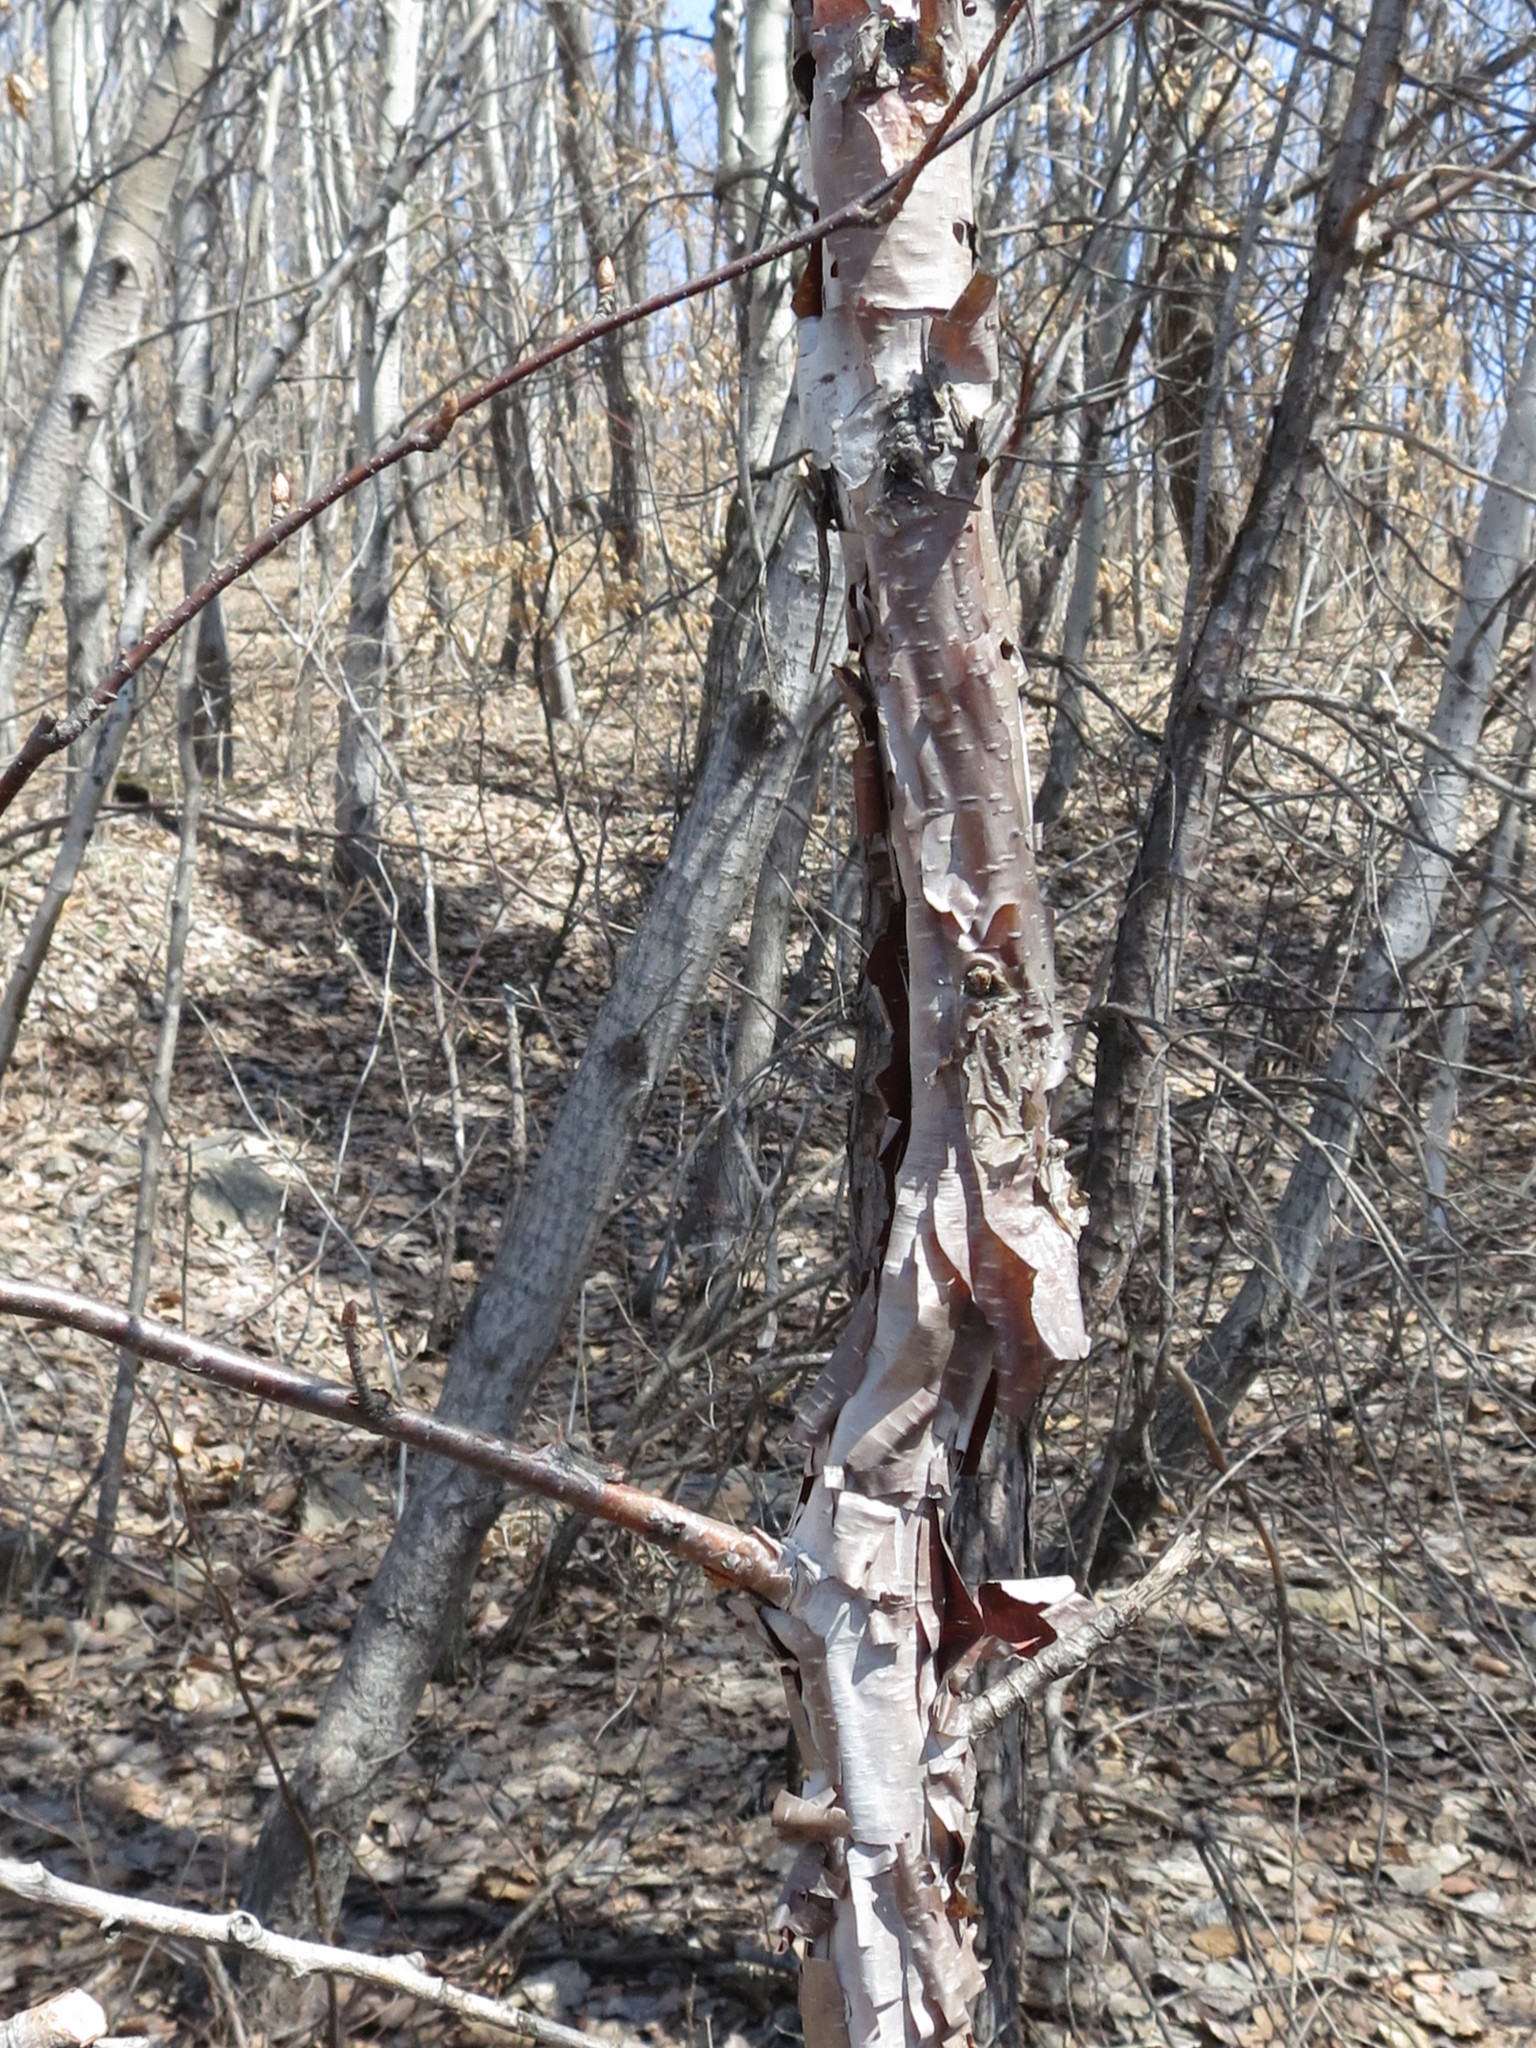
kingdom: Plantae
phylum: Tracheophyta
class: Magnoliopsida
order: Fagales
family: Betulaceae
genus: Betula
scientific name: Betula dauurica
